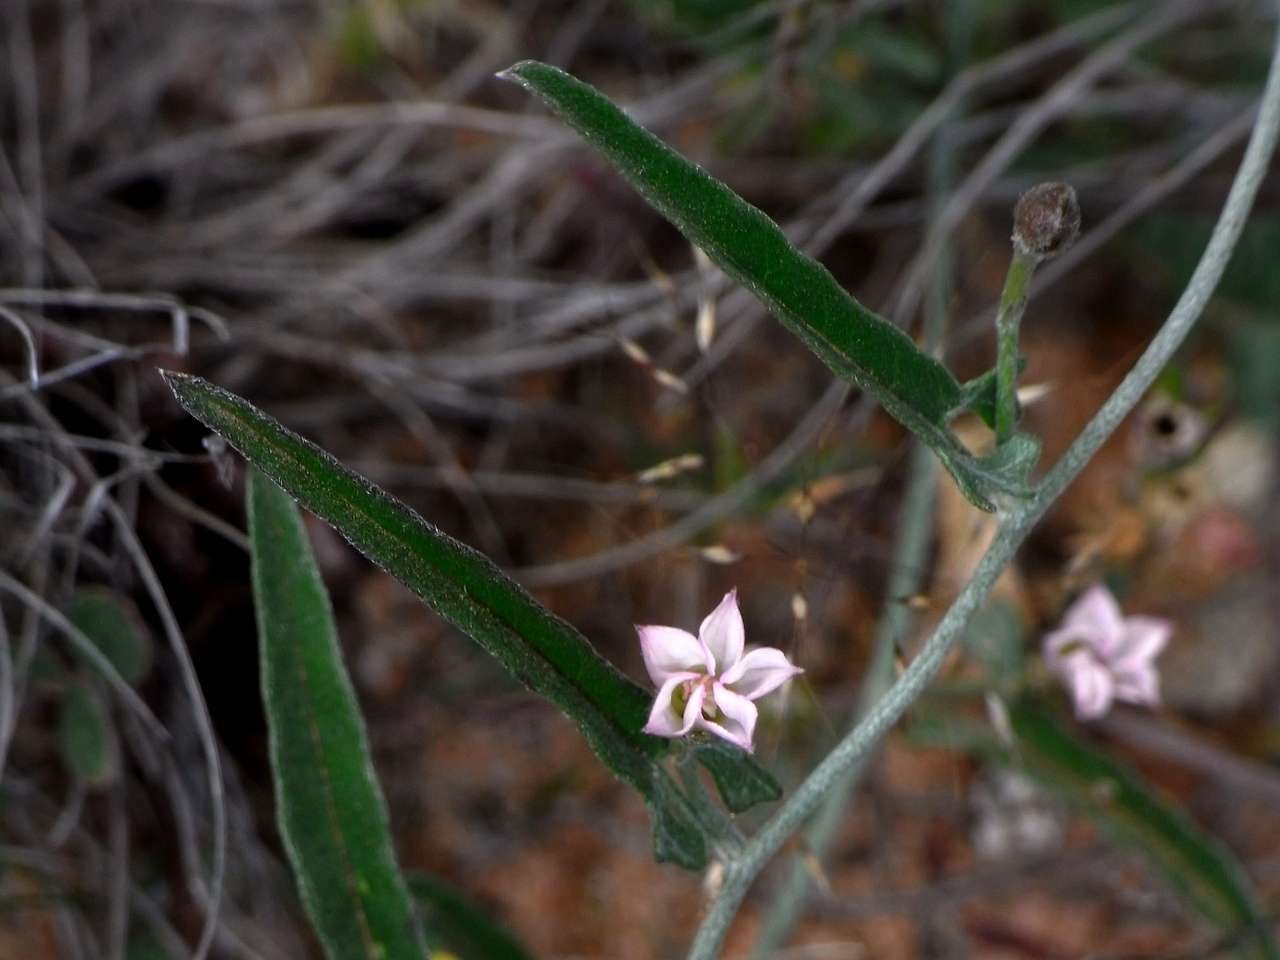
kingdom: Plantae
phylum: Tracheophyta
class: Magnoliopsida
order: Solanales
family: Convolvulaceae
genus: Convolvulus
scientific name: Convolvulus remotus
